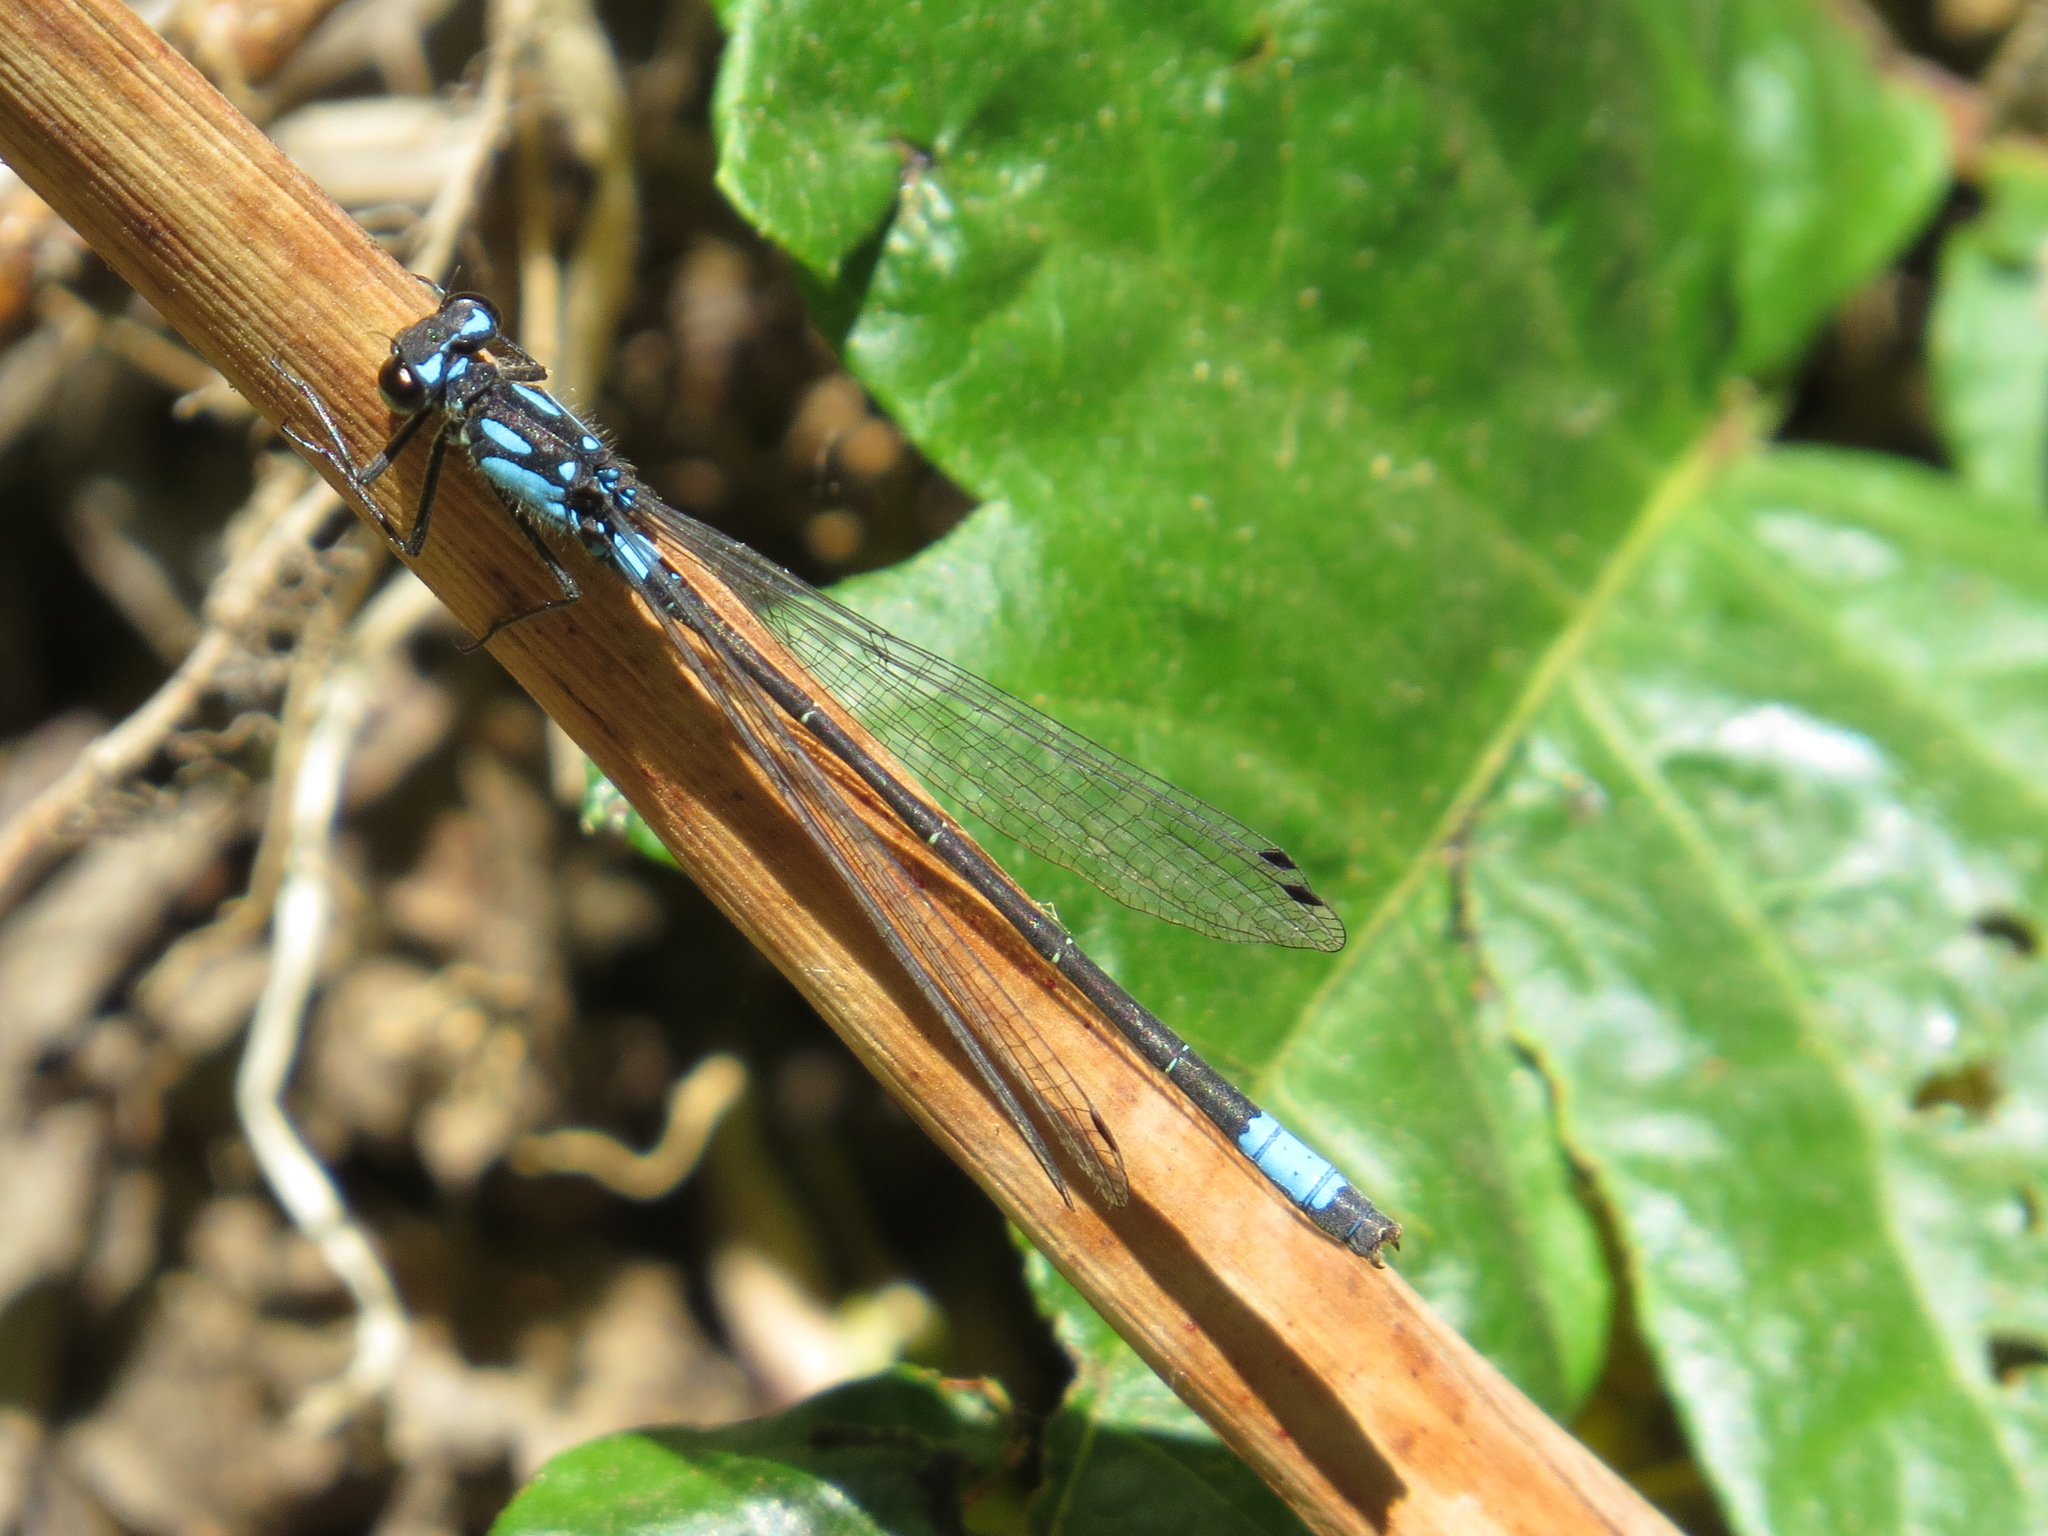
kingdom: Animalia
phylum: Arthropoda
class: Insecta
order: Odonata
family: Coenagrionidae
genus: Zoniagrion
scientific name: Zoniagrion exclamationis
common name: Exclamation damsel
